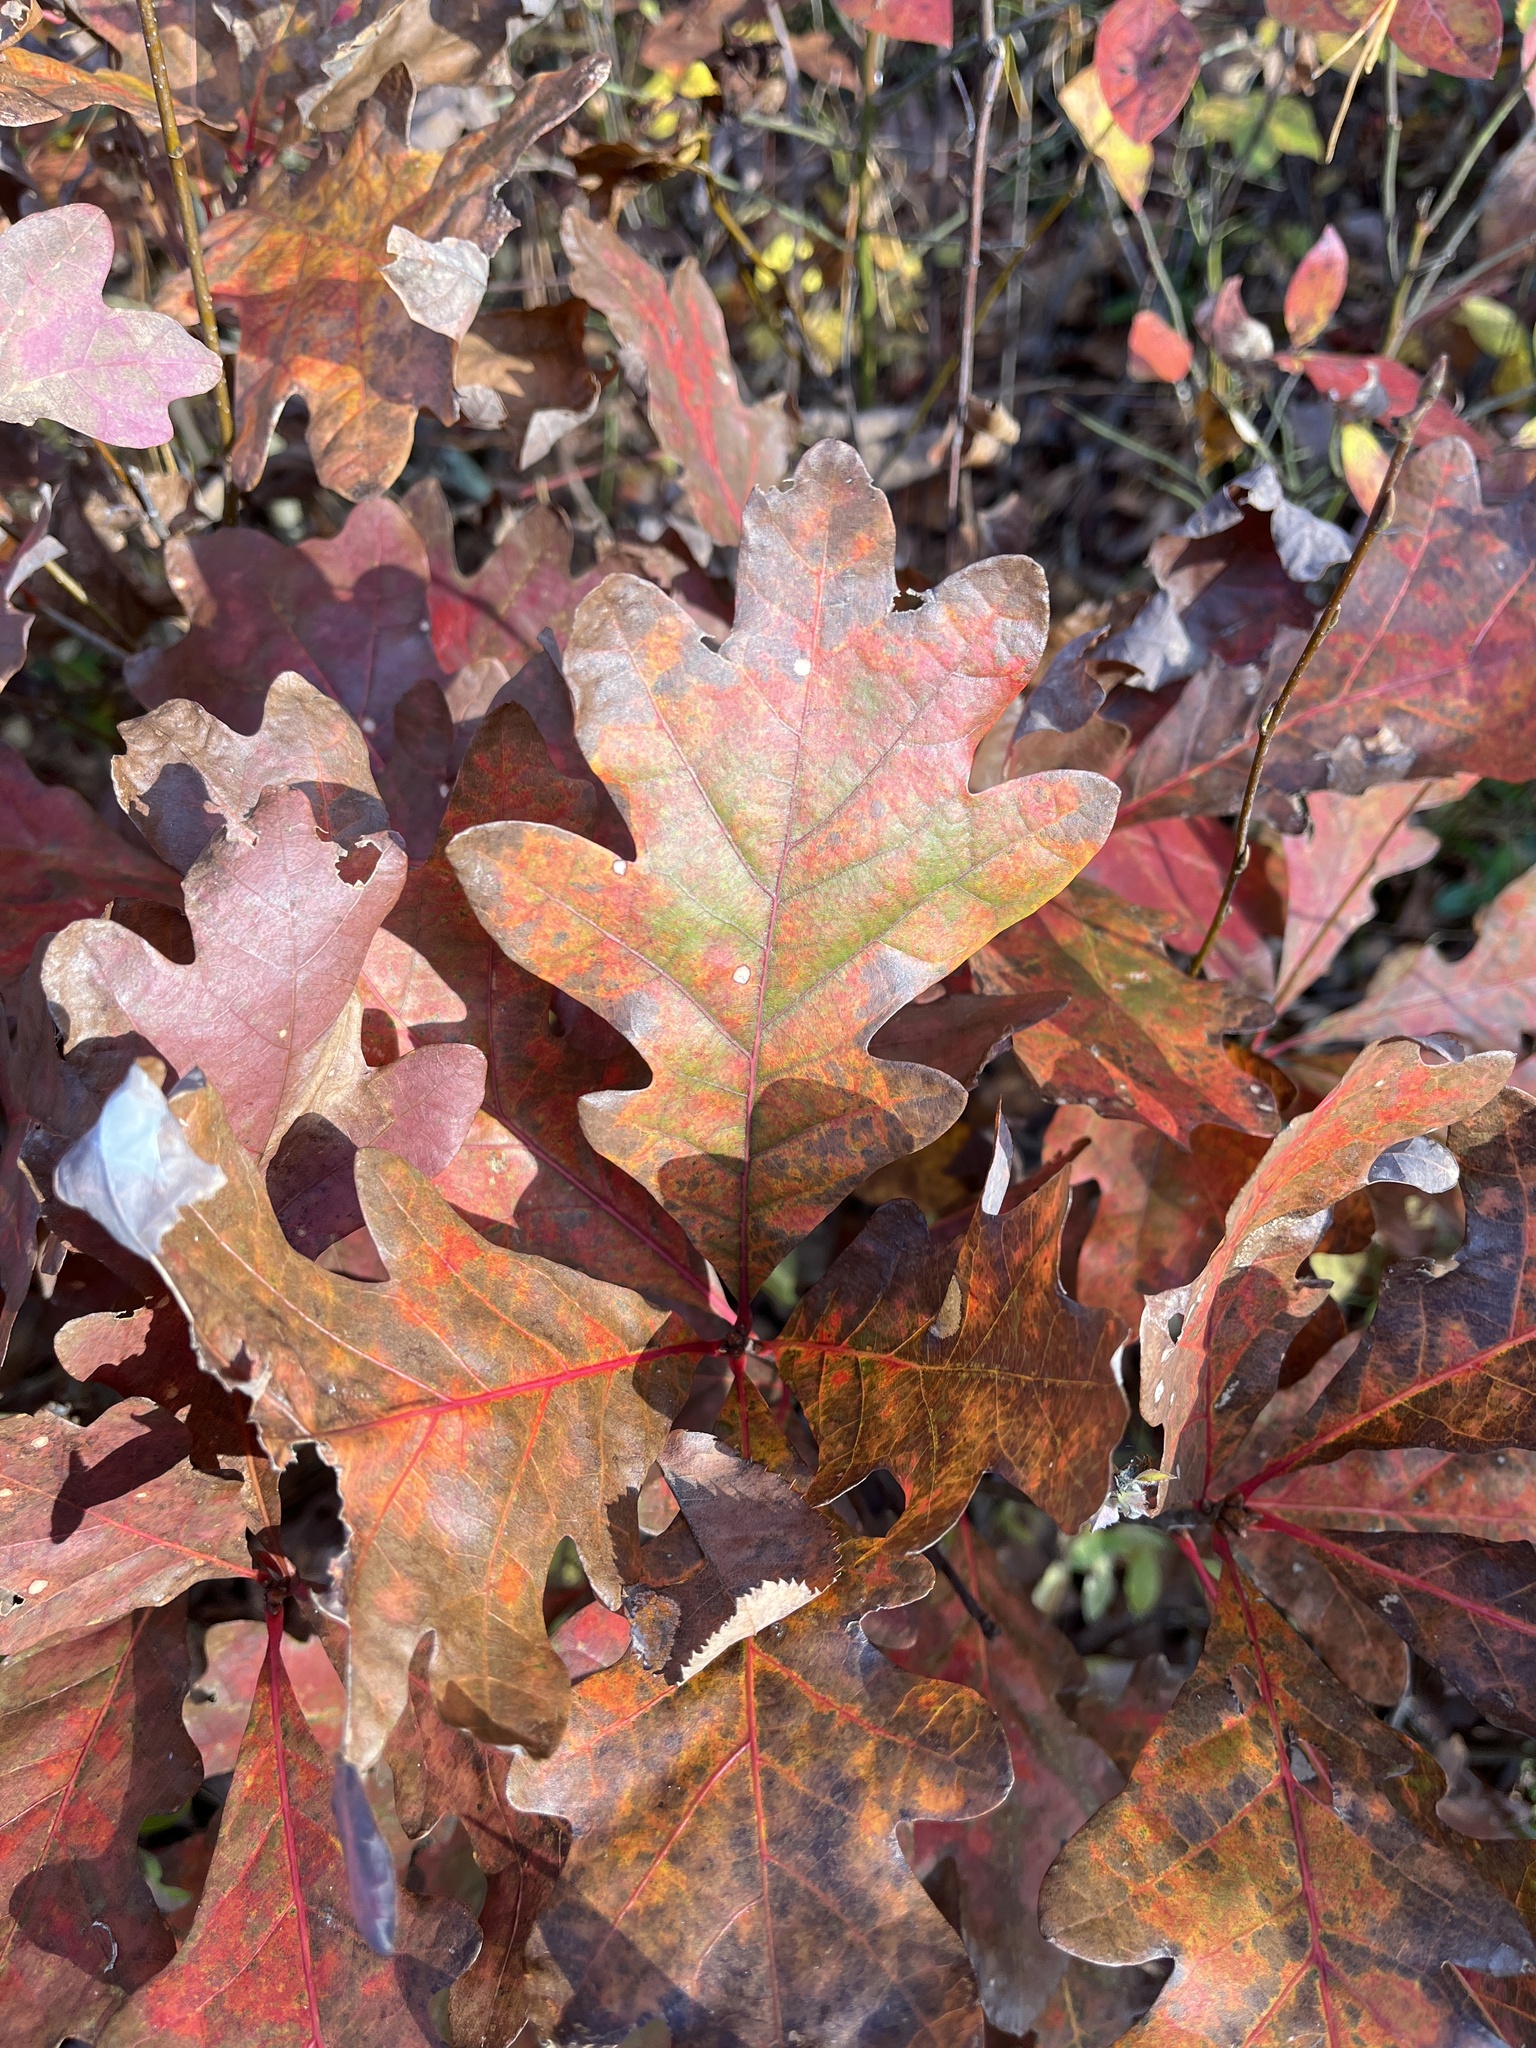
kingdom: Plantae
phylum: Tracheophyta
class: Magnoliopsida
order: Fagales
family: Fagaceae
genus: Quercus
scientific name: Quercus alba
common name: White oak
